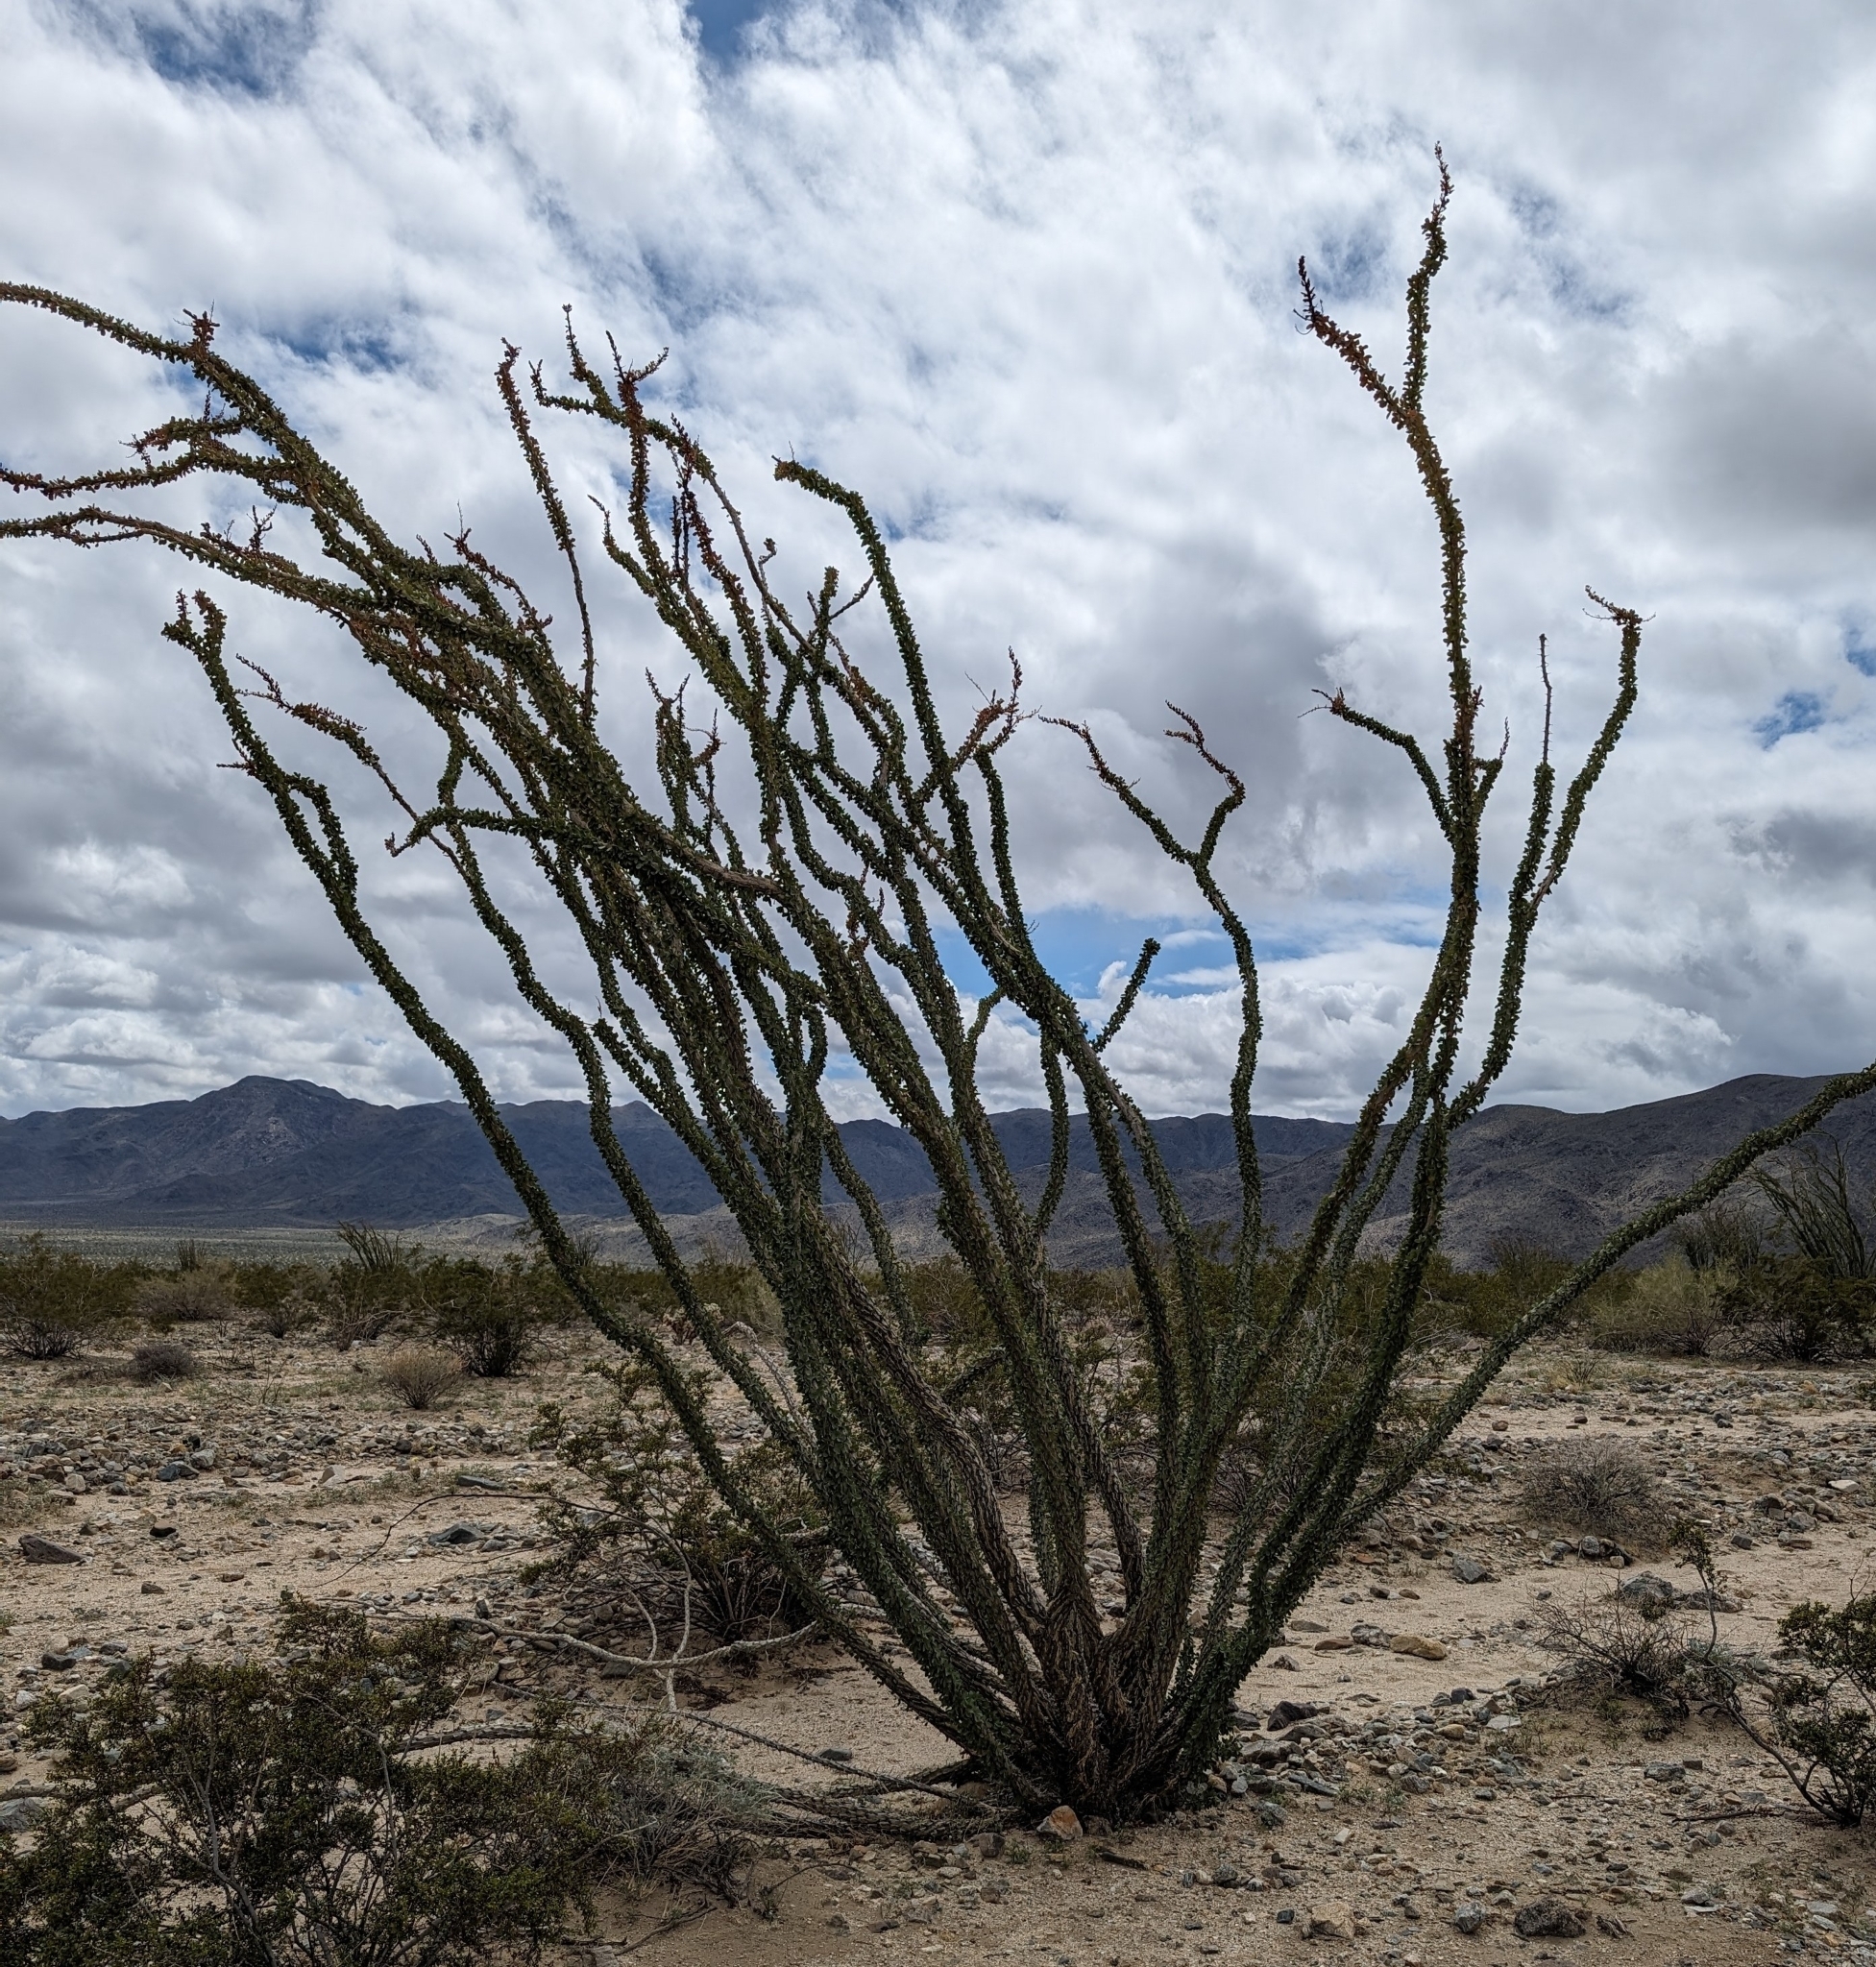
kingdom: Plantae
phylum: Tracheophyta
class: Magnoliopsida
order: Ericales
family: Fouquieriaceae
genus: Fouquieria
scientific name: Fouquieria splendens
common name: Vine-cactus
